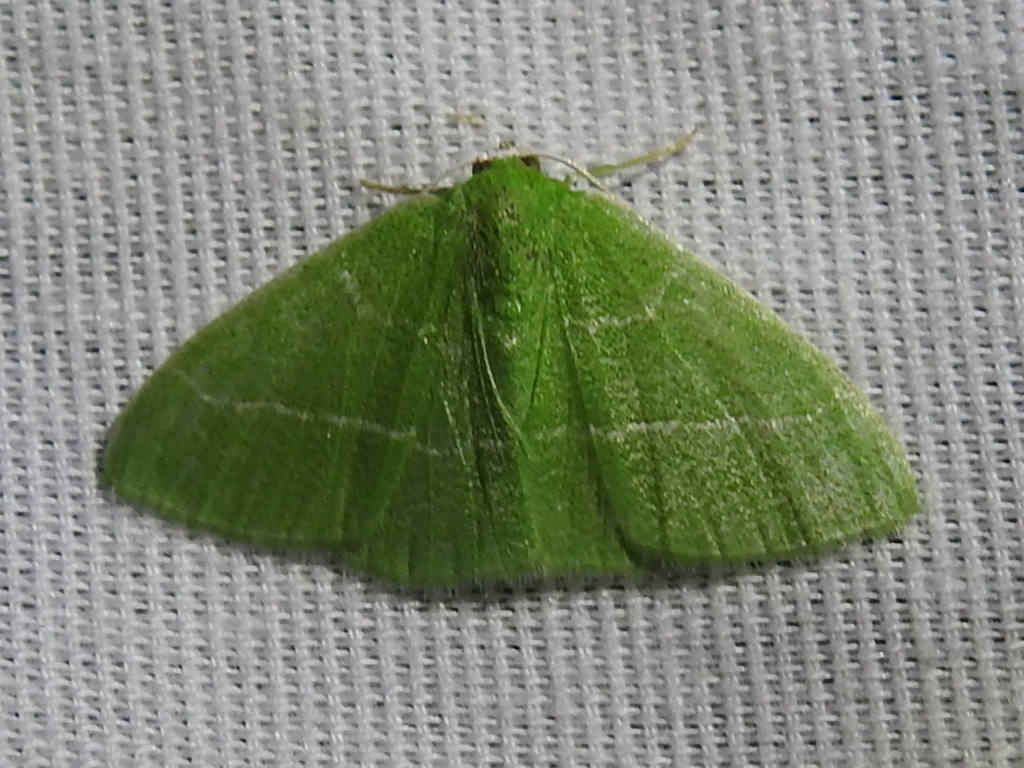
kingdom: Animalia
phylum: Arthropoda
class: Insecta
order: Lepidoptera
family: Geometridae
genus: Nemoria
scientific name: Nemoria zygotaria
